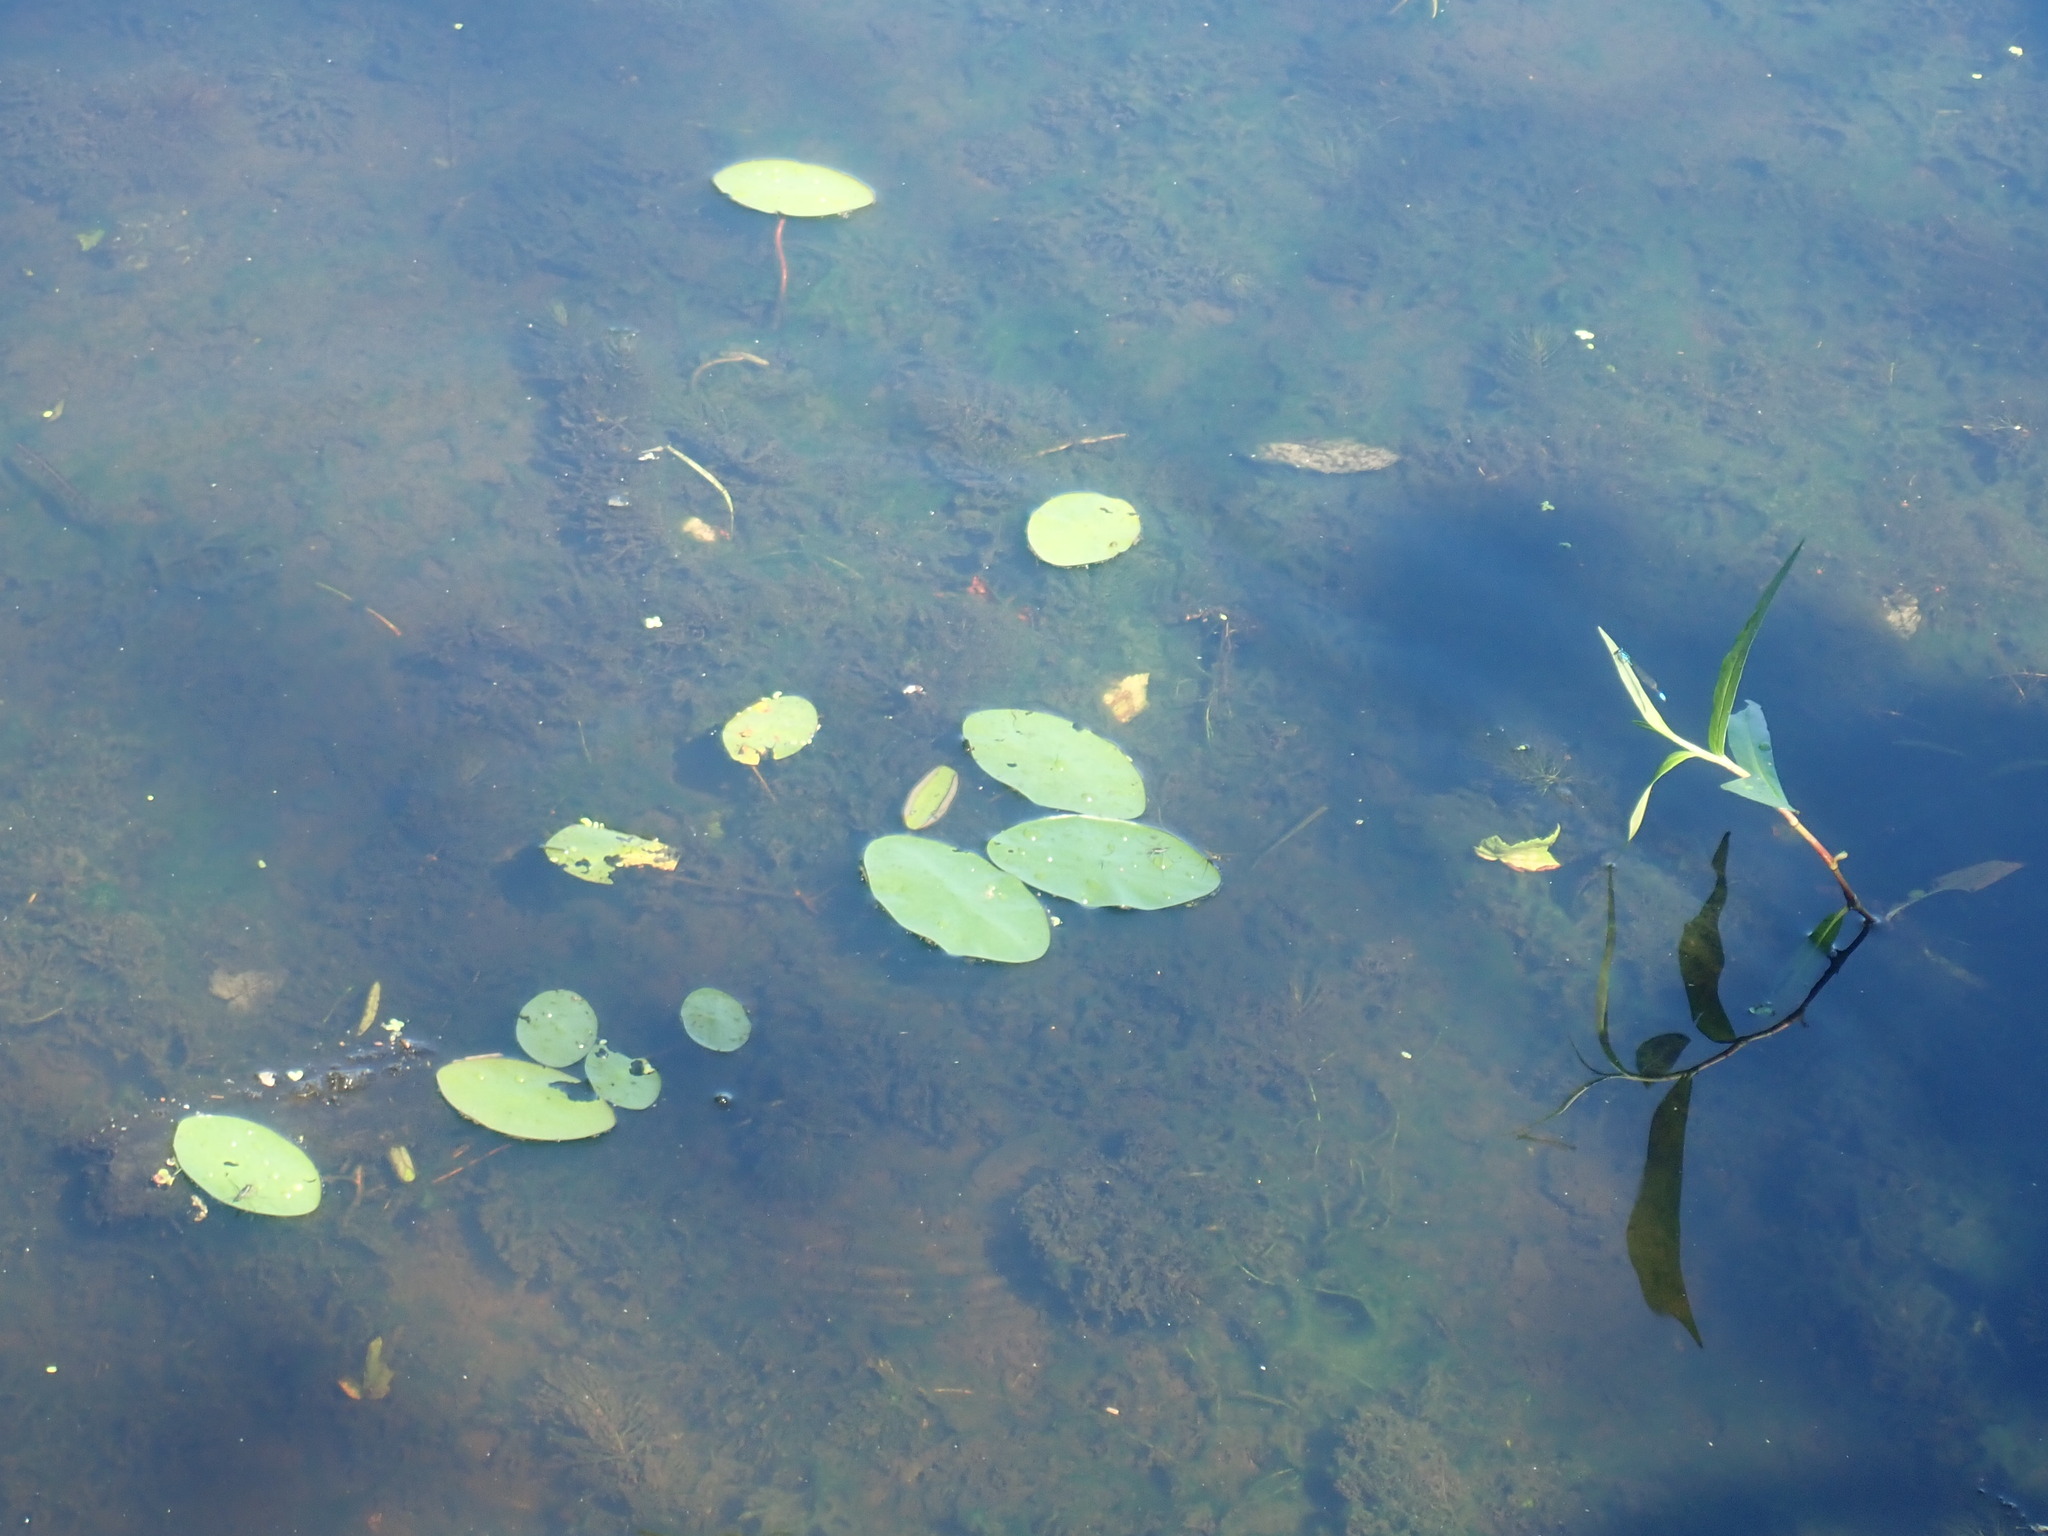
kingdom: Plantae
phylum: Tracheophyta
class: Magnoliopsida
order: Nymphaeales
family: Cabombaceae
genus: Brasenia
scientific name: Brasenia schreberi
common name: Water-shield
